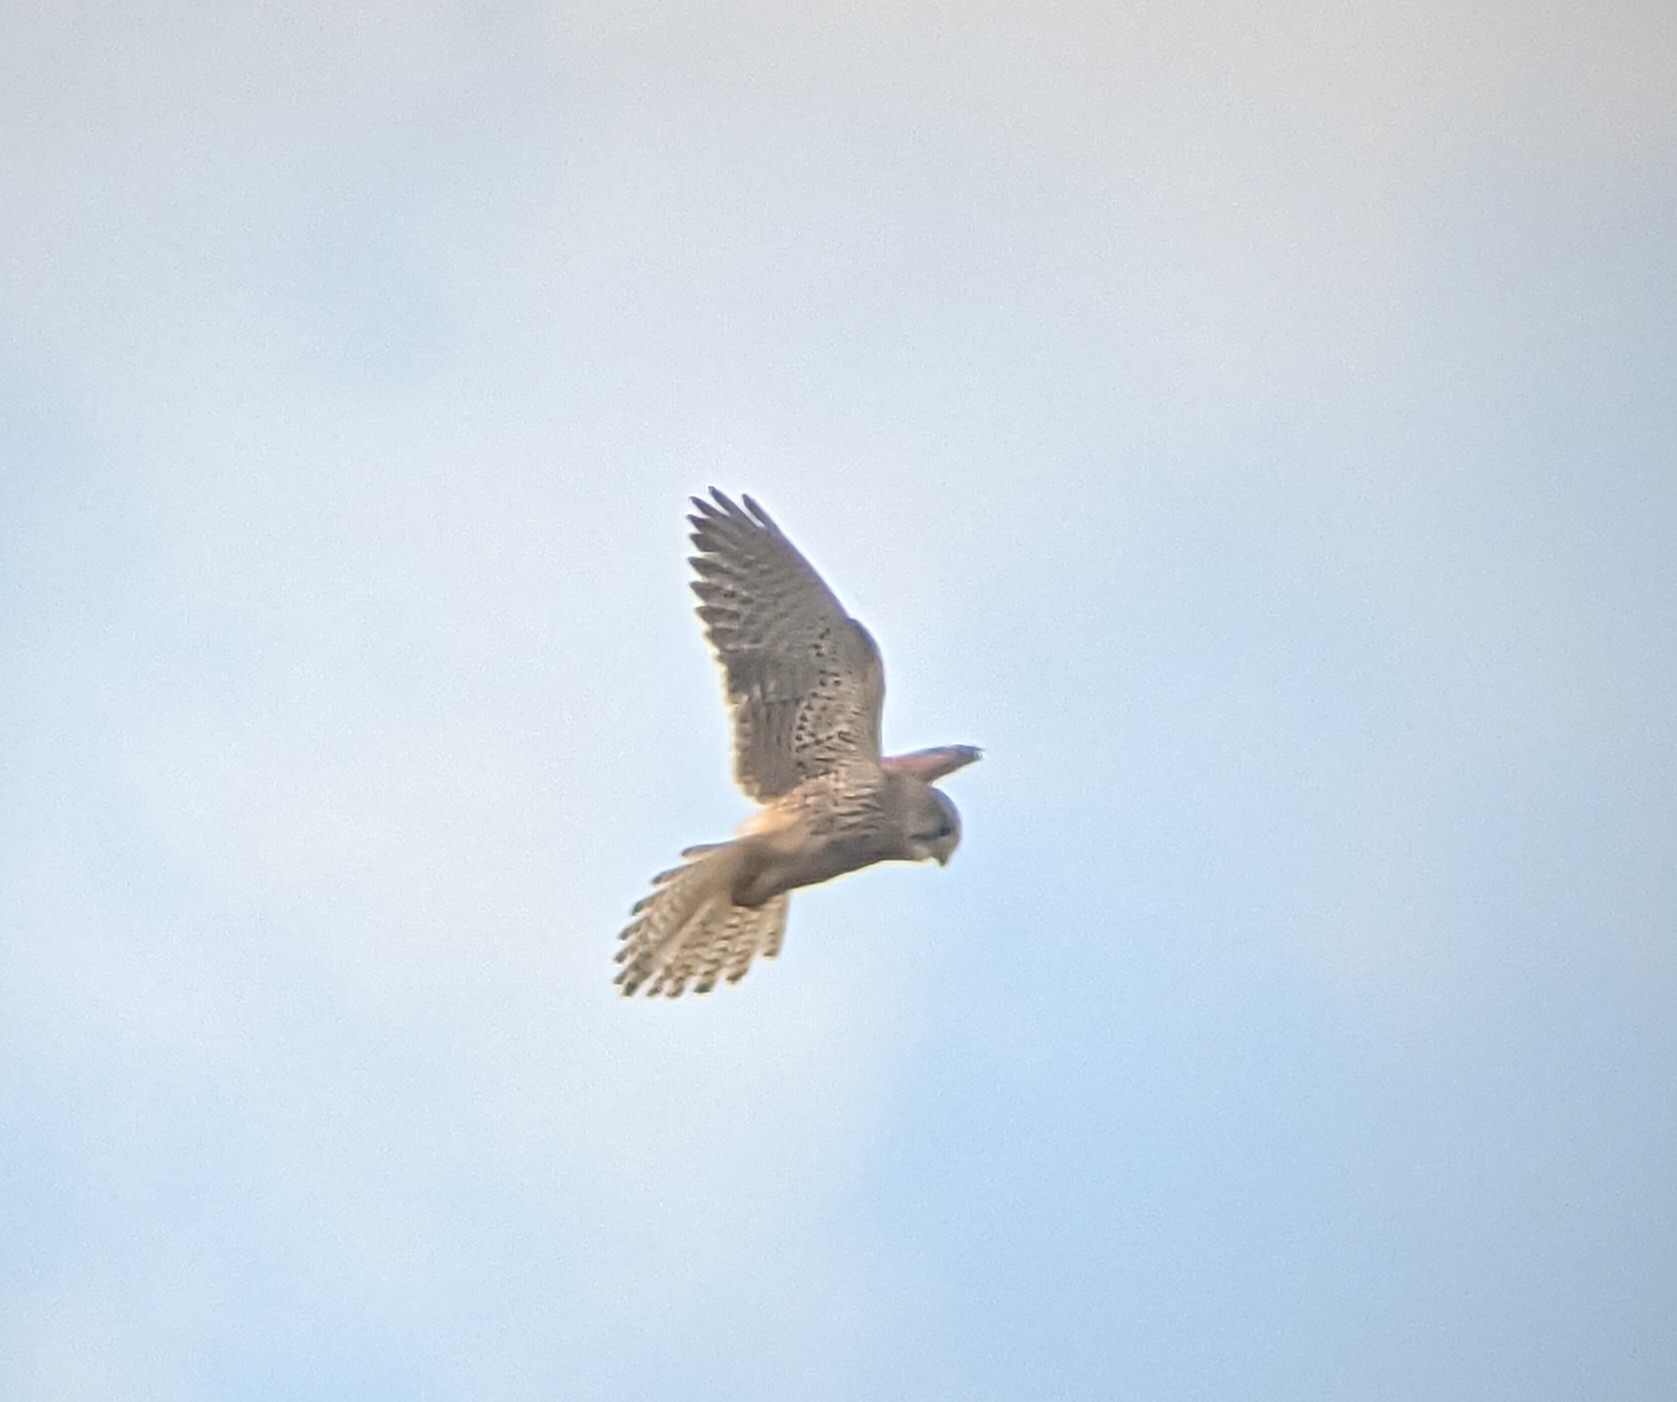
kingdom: Animalia
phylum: Chordata
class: Aves
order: Falconiformes
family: Falconidae
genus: Falco
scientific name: Falco tinnunculus
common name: Common kestrel
